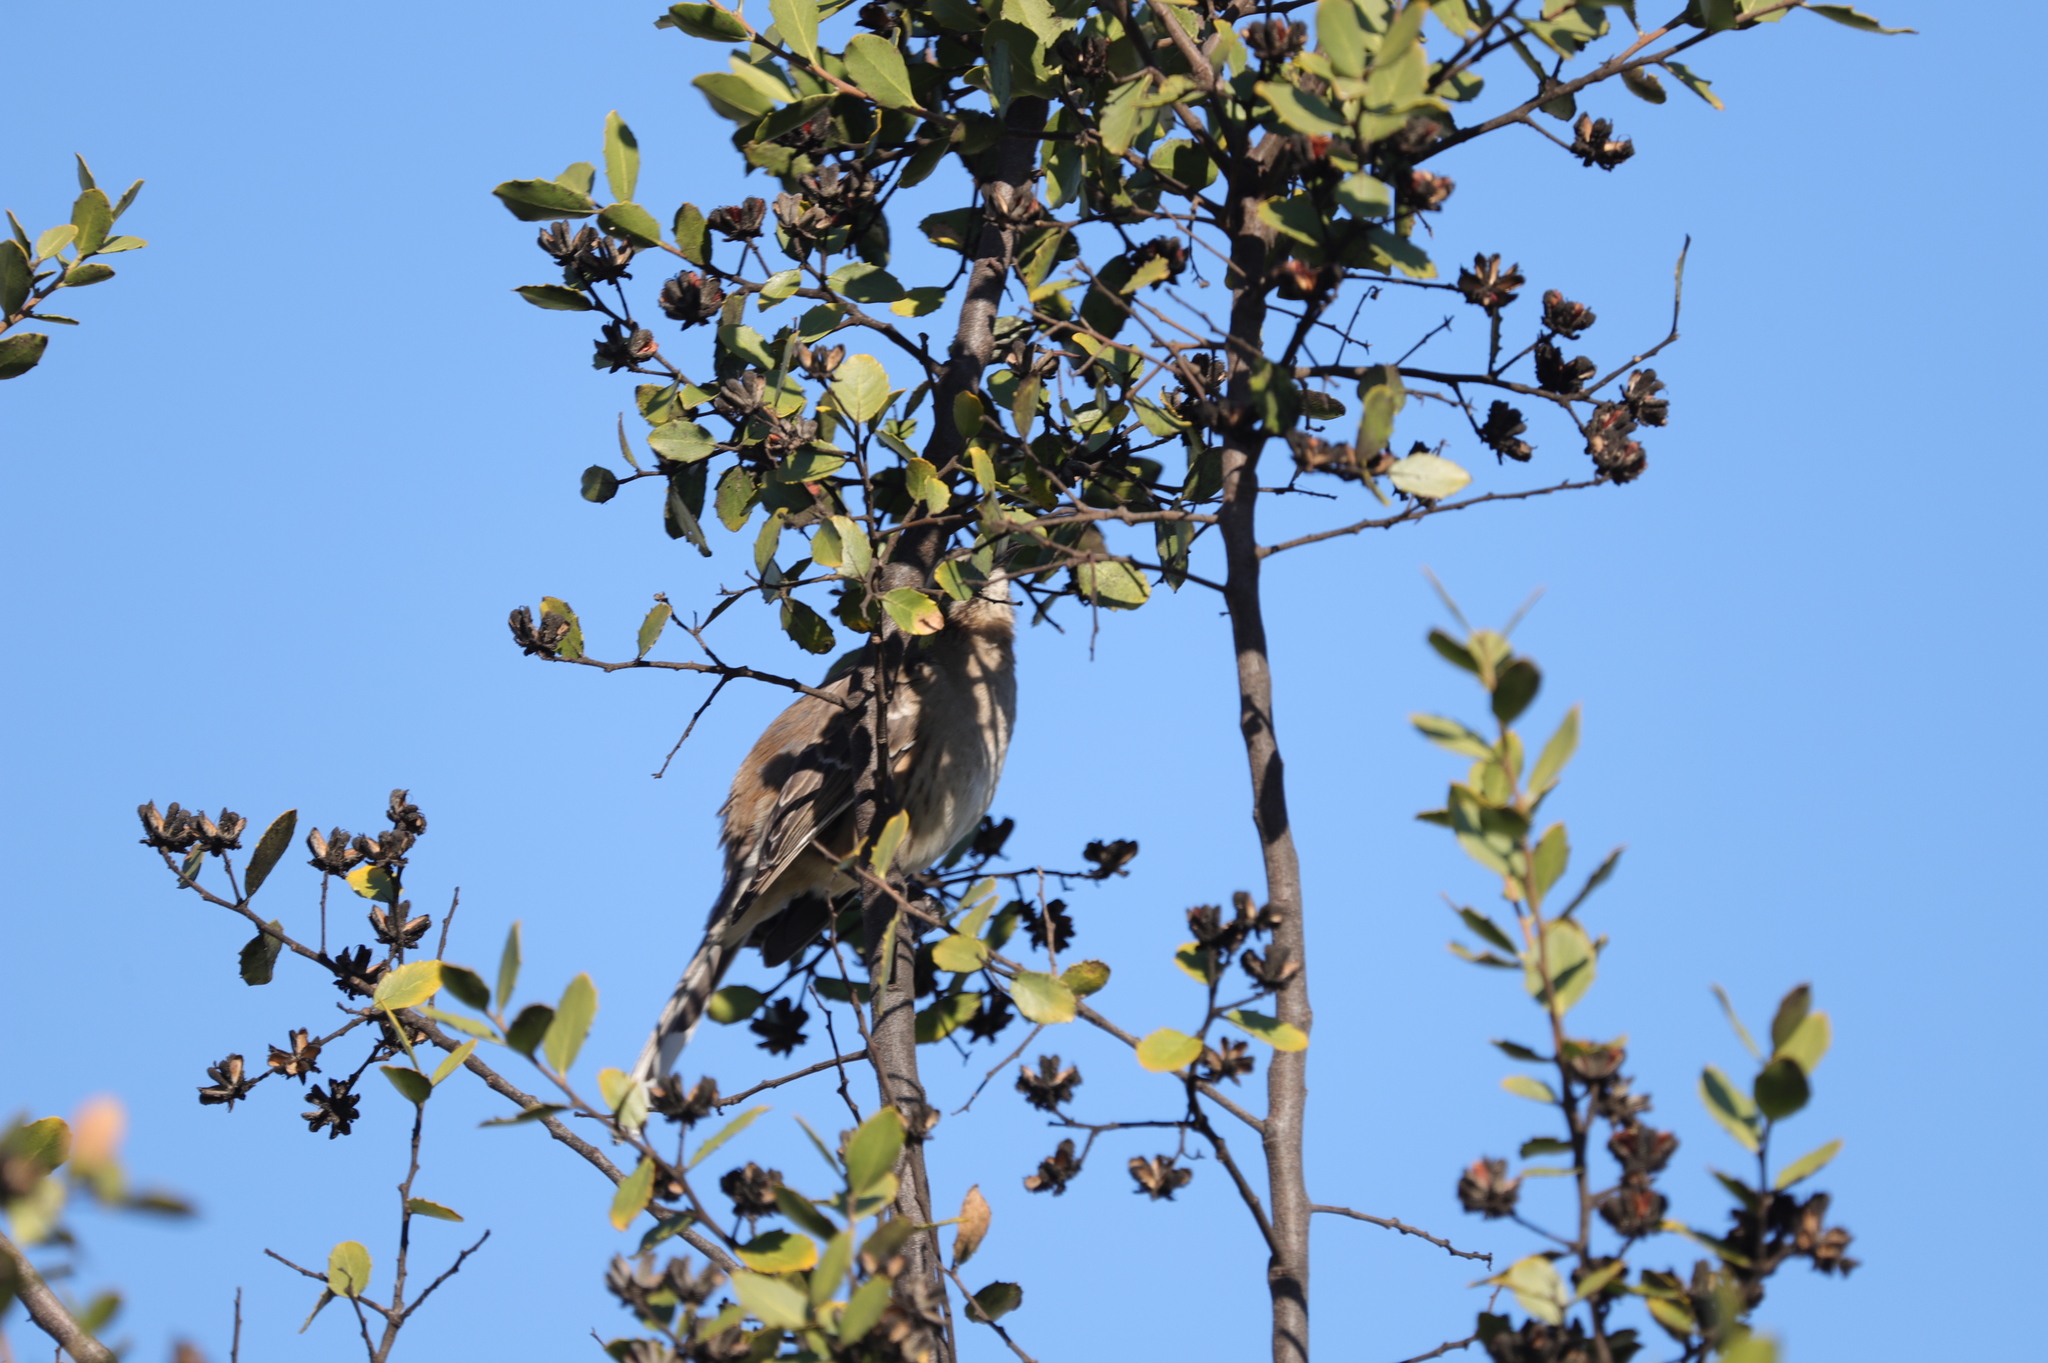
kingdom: Animalia
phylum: Chordata
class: Aves
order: Passeriformes
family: Mimidae
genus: Mimus
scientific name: Mimus thenca
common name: Chilean mockingbird
